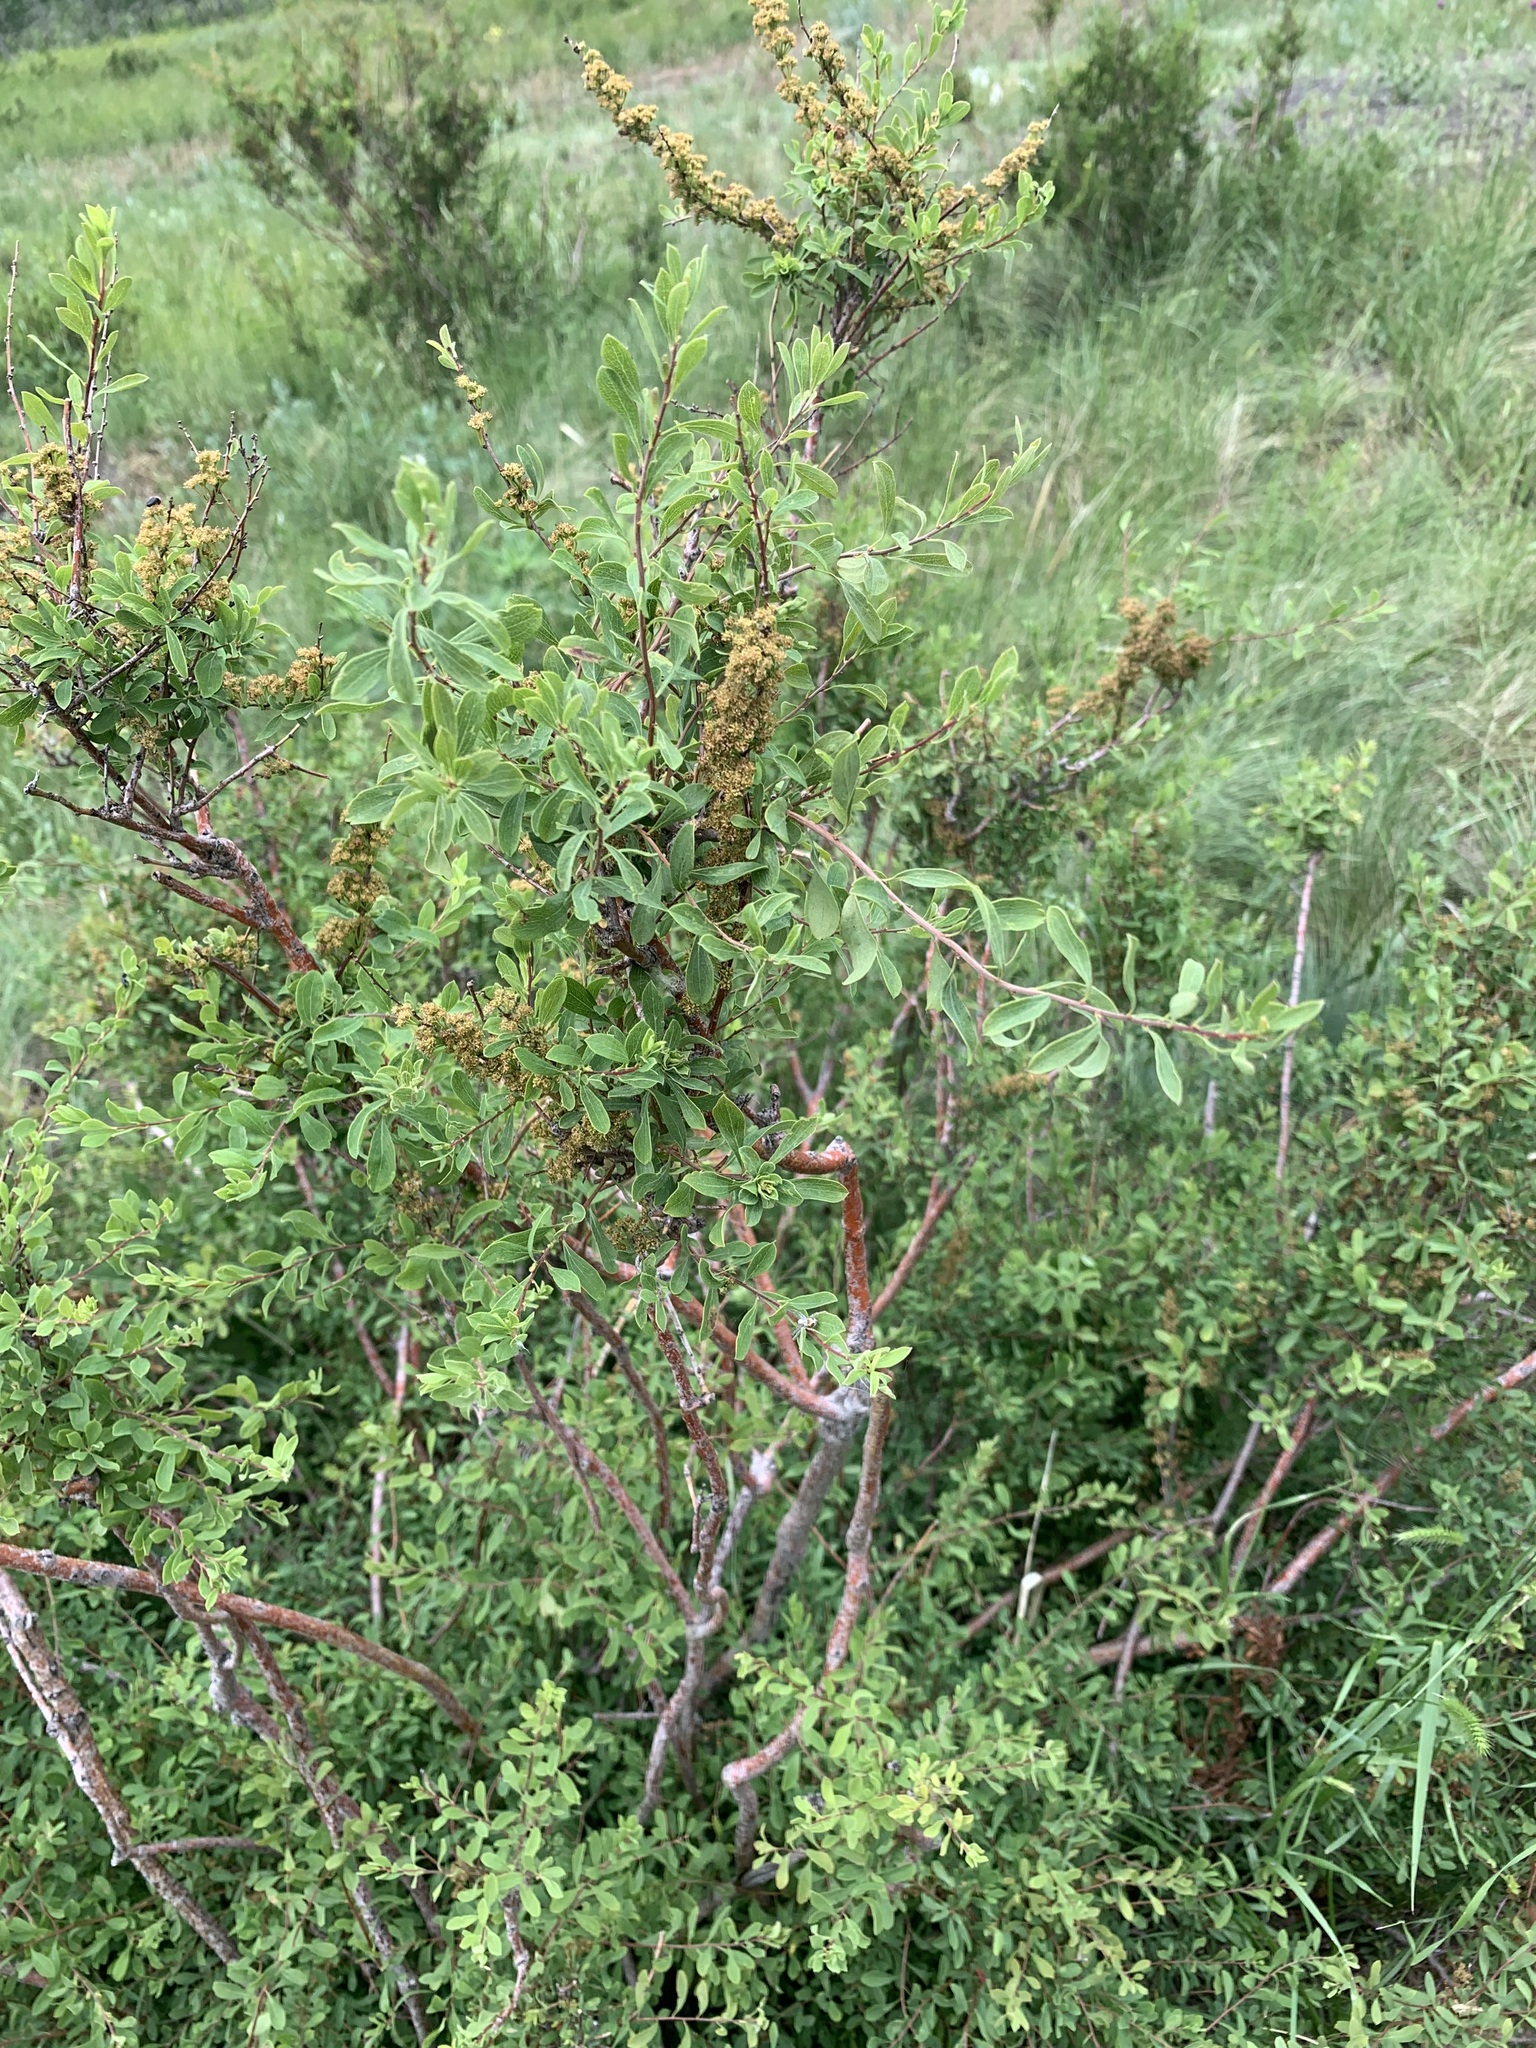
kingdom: Plantae
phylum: Tracheophyta
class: Magnoliopsida
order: Rosales
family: Rosaceae
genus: Spiraea
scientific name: Spiraea hypericifolia
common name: Iberian spirea
